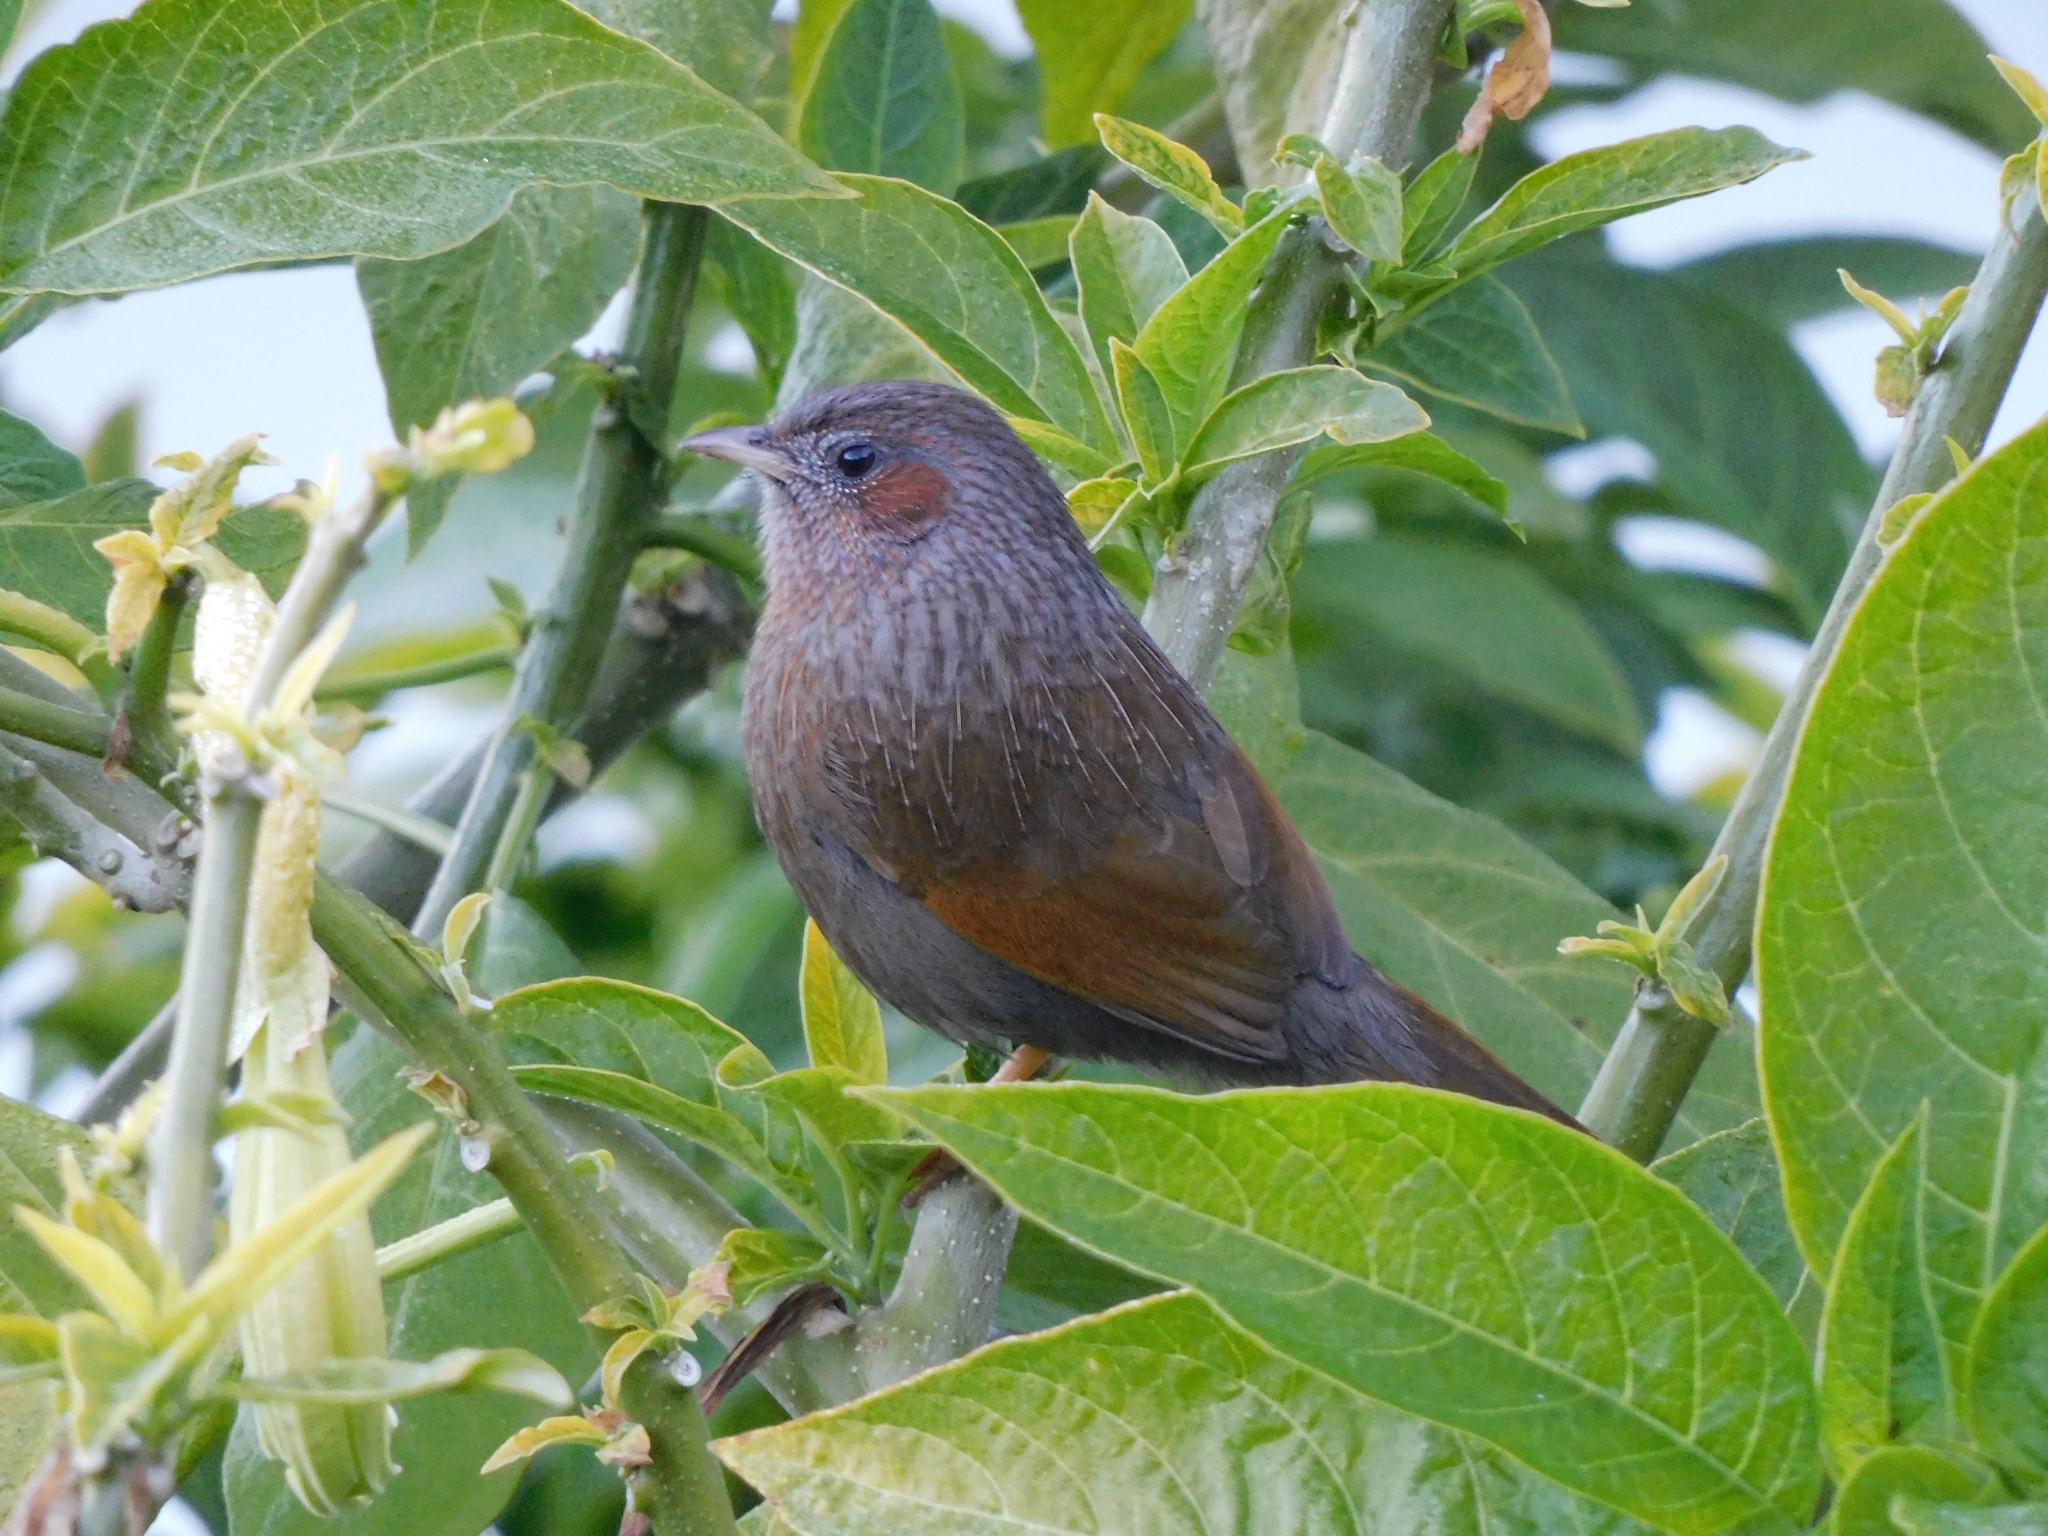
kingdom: Animalia
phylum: Chordata
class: Aves
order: Passeriformes
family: Leiothrichidae
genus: Trochalopteron
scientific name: Trochalopteron lineatum
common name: Streaked laughingthrush
